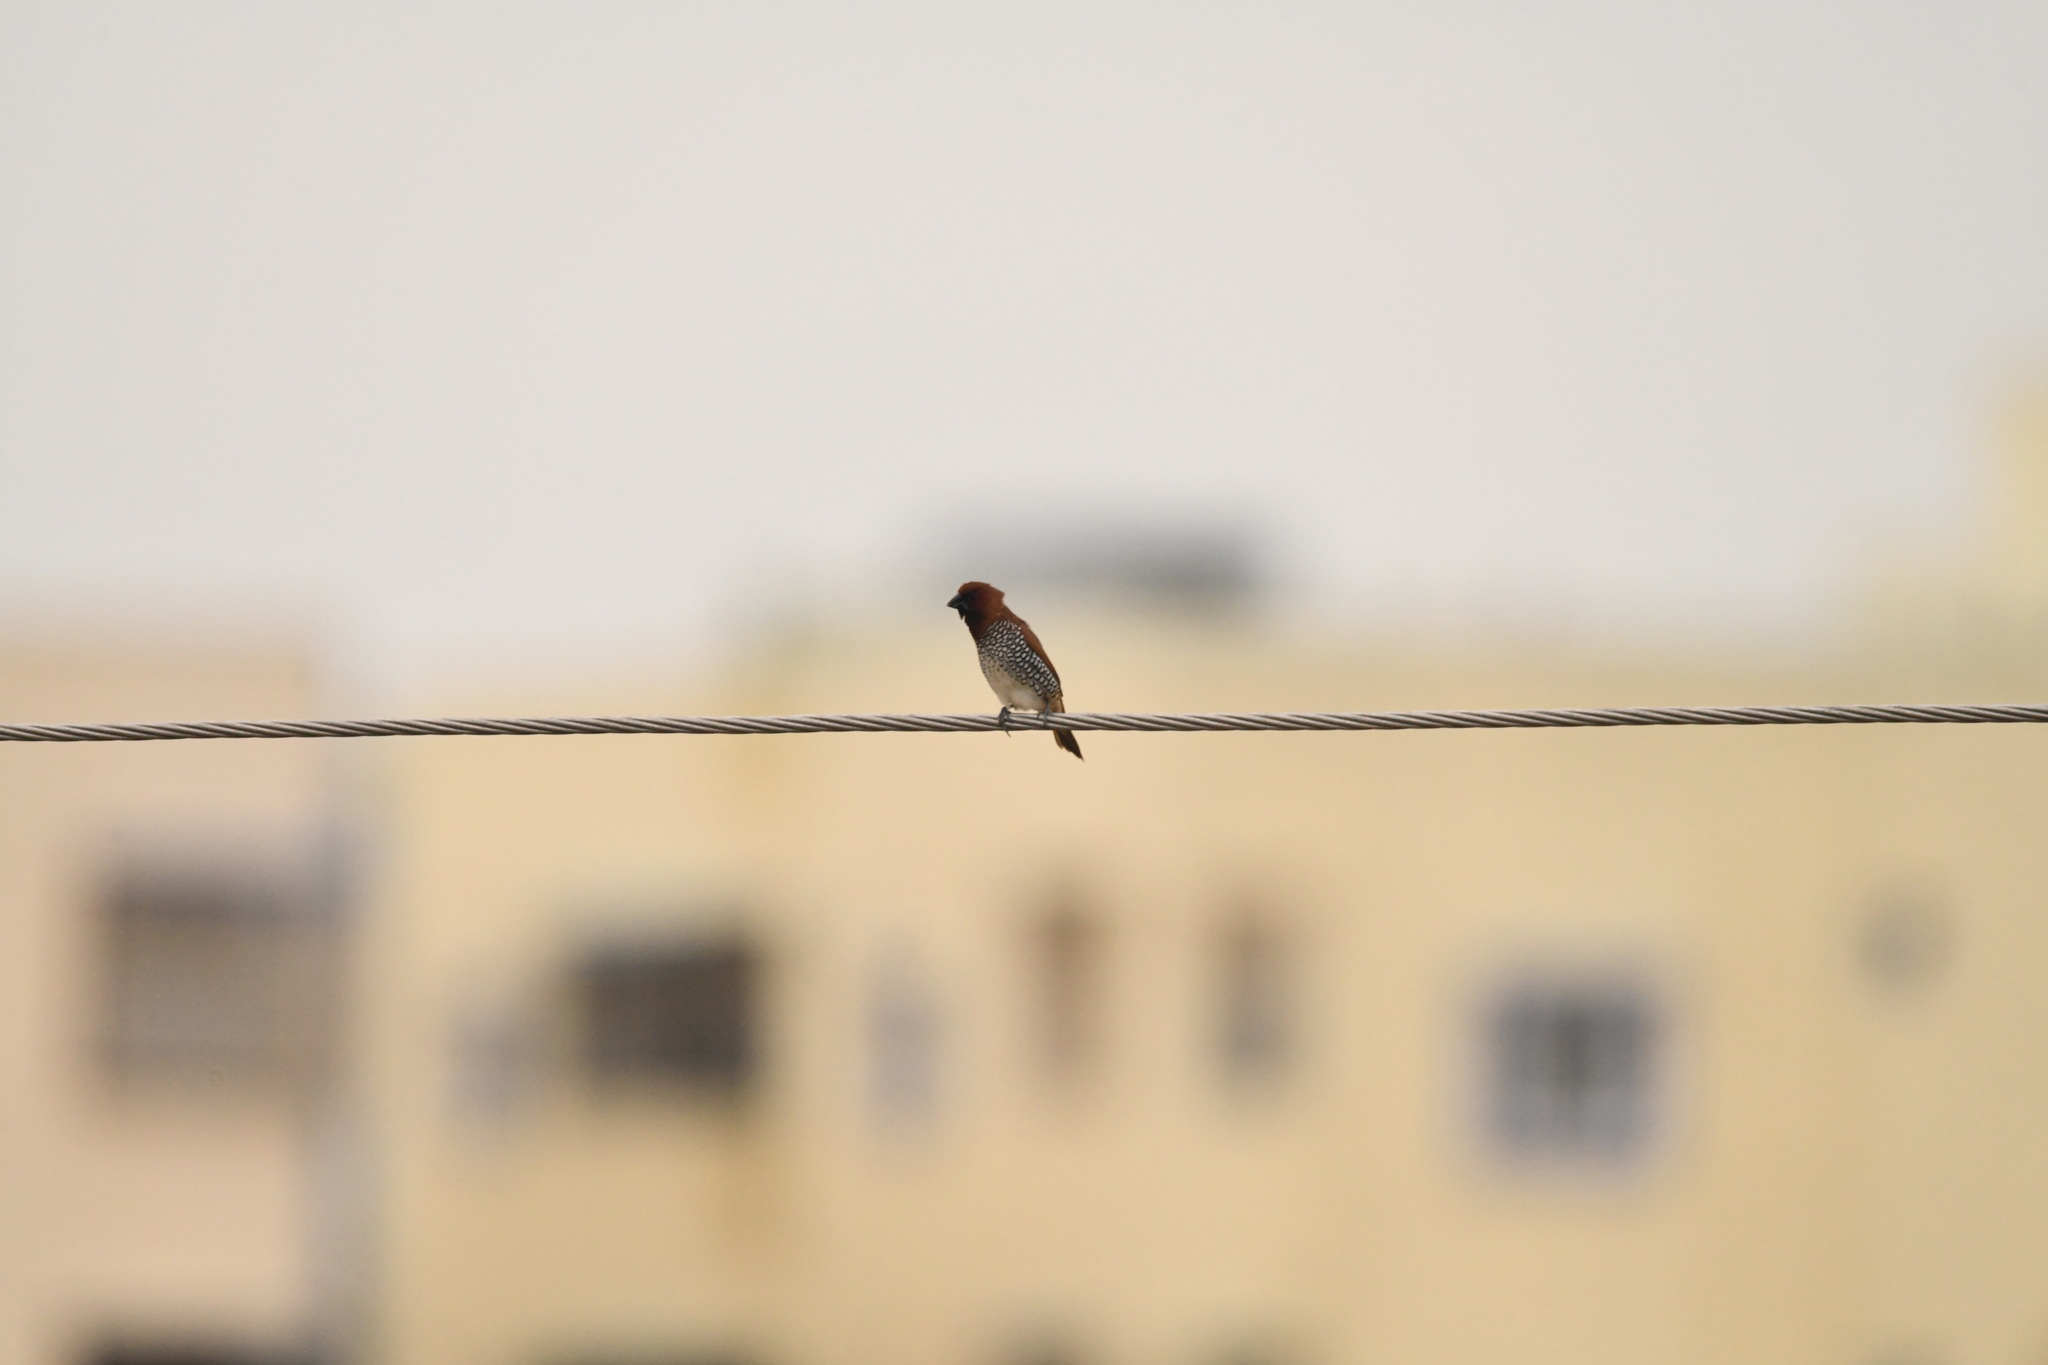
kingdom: Animalia
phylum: Chordata
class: Aves
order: Passeriformes
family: Estrildidae
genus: Lonchura
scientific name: Lonchura punctulata
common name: Scaly-breasted munia
